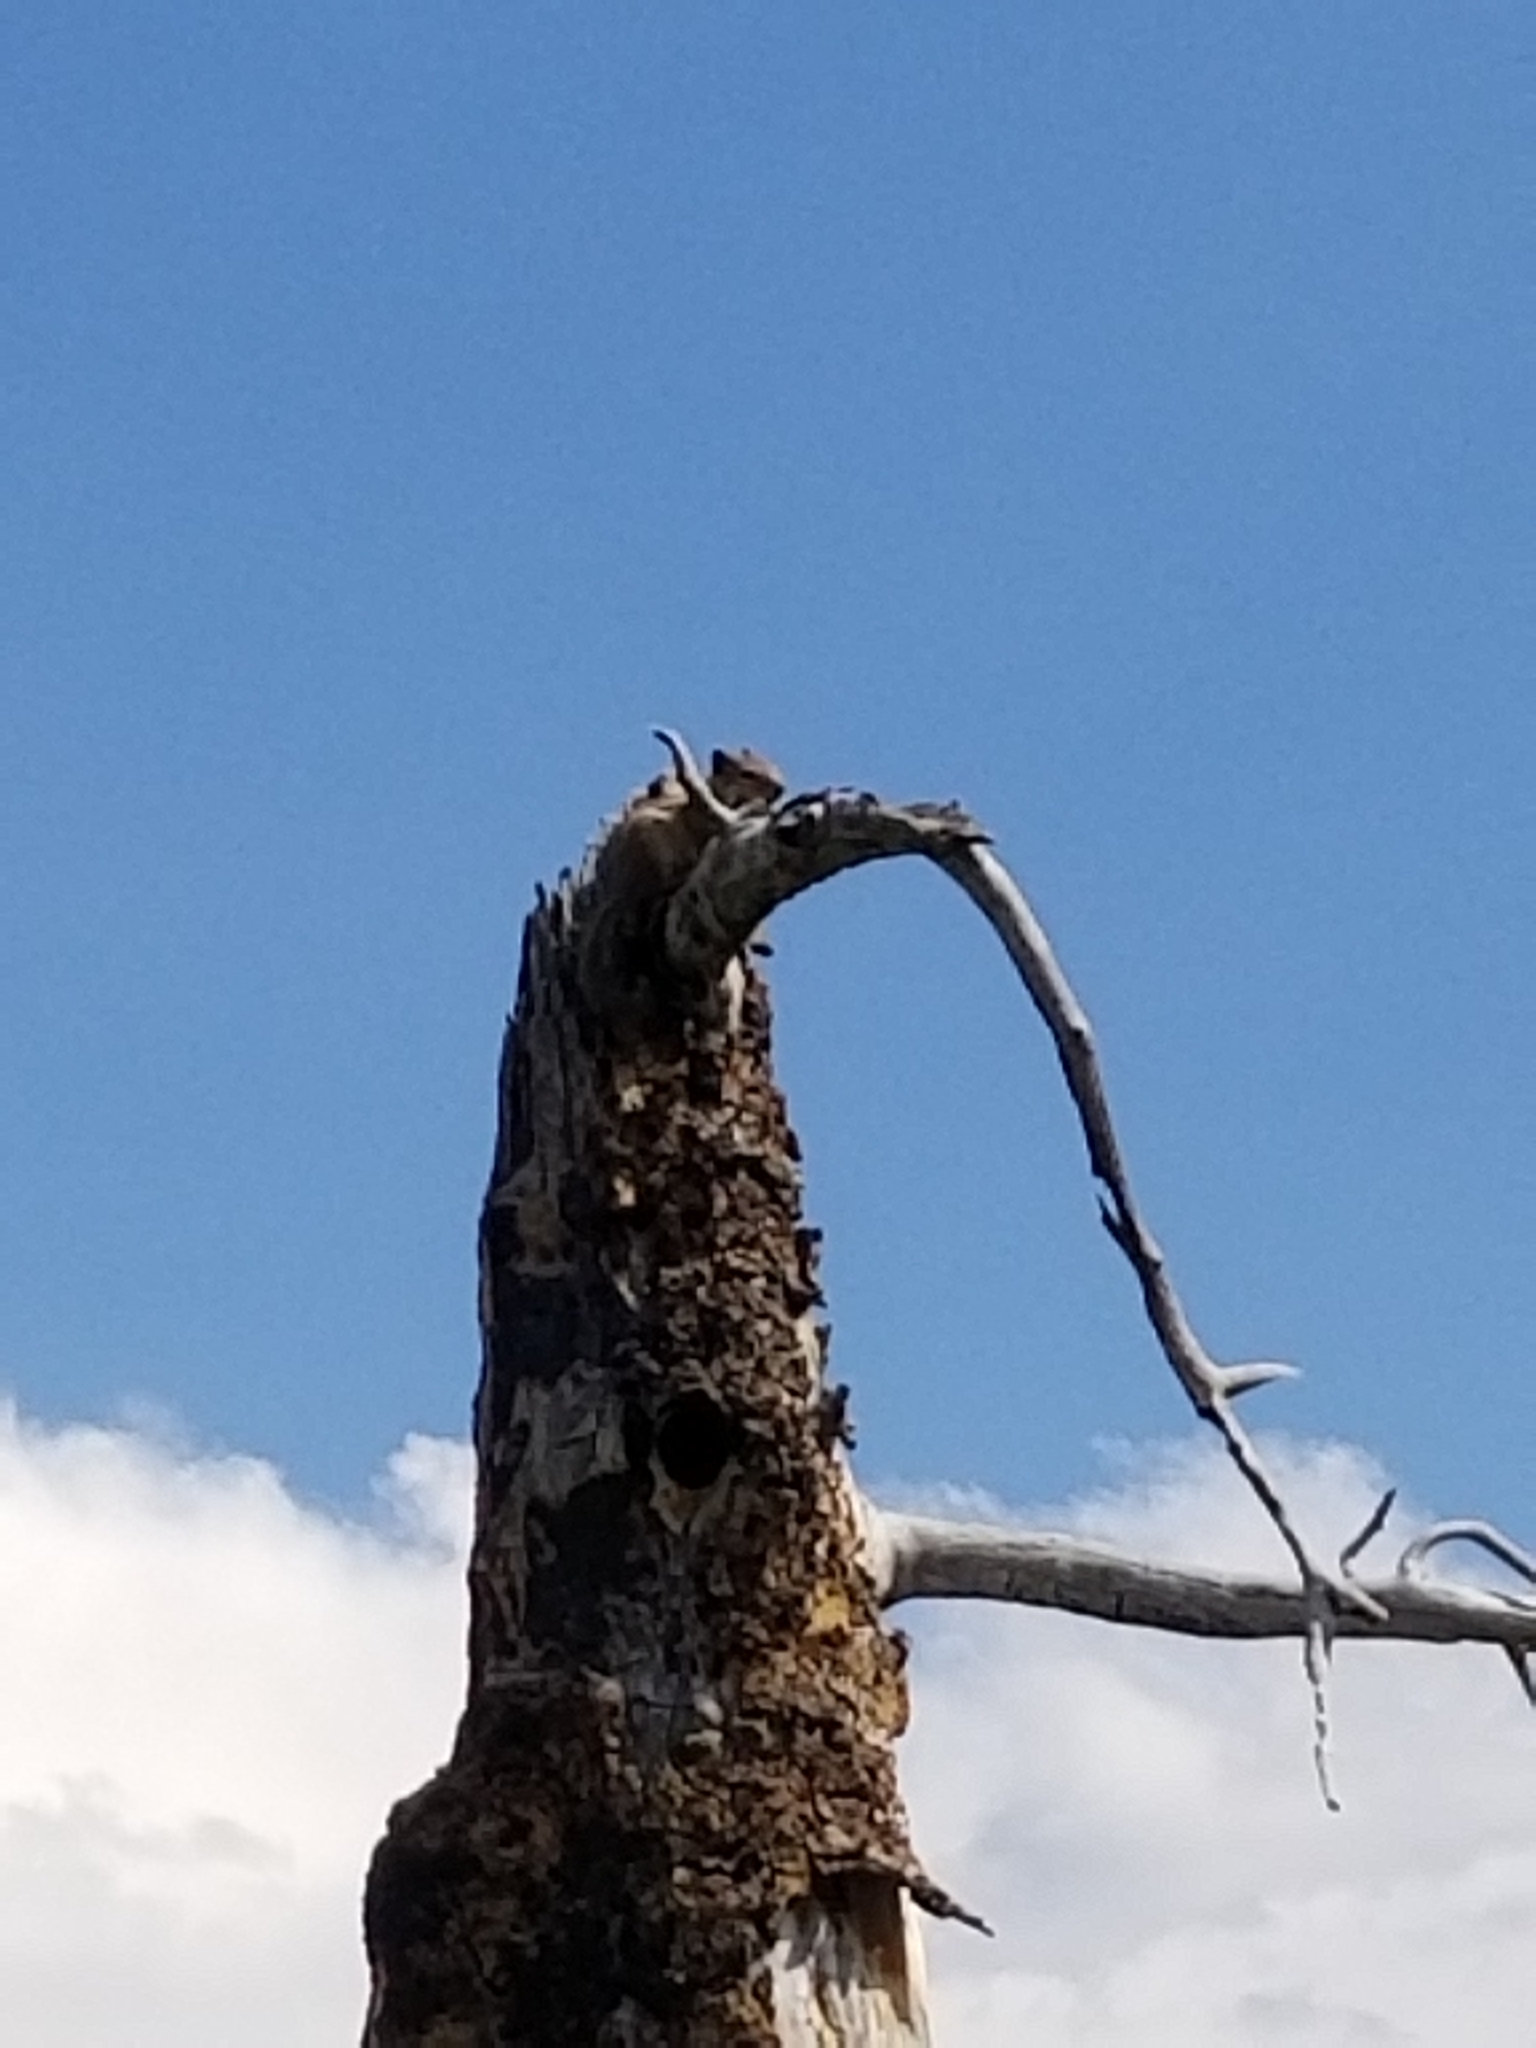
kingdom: Animalia
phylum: Chordata
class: Mammalia
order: Rodentia
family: Sciuridae
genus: Callospermophilus
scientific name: Callospermophilus lateralis
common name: Golden-mantled ground squirrel
